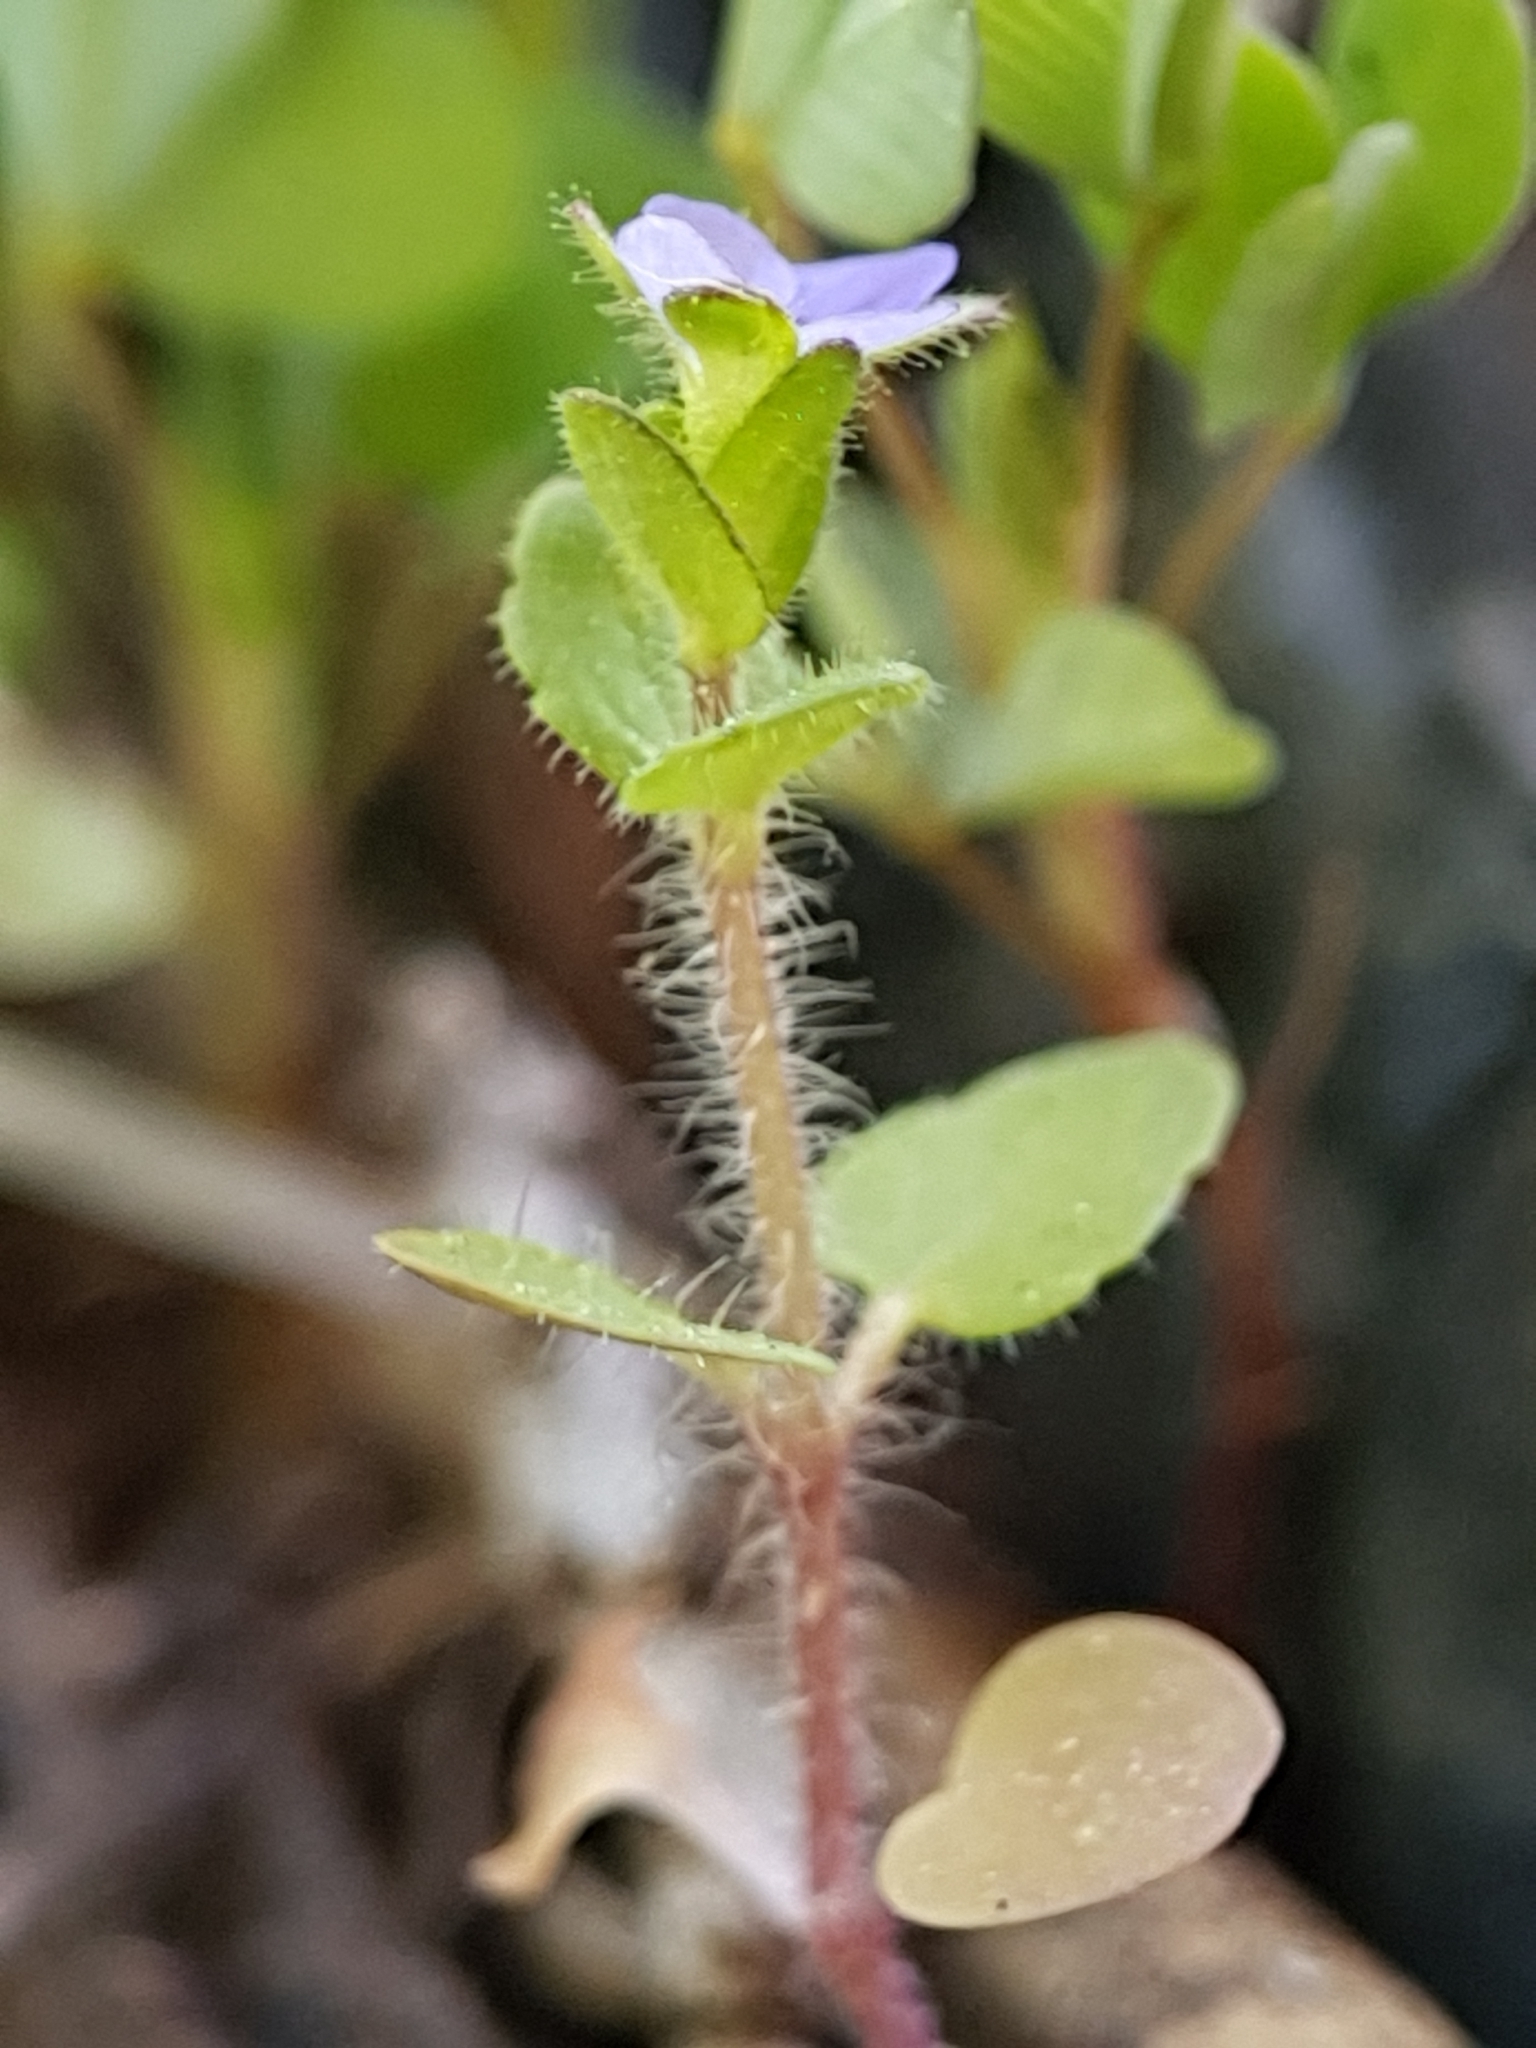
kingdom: Plantae
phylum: Tracheophyta
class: Magnoliopsida
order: Lamiales
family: Plantaginaceae
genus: Veronica
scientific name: Veronica arvensis
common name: Corn speedwell
